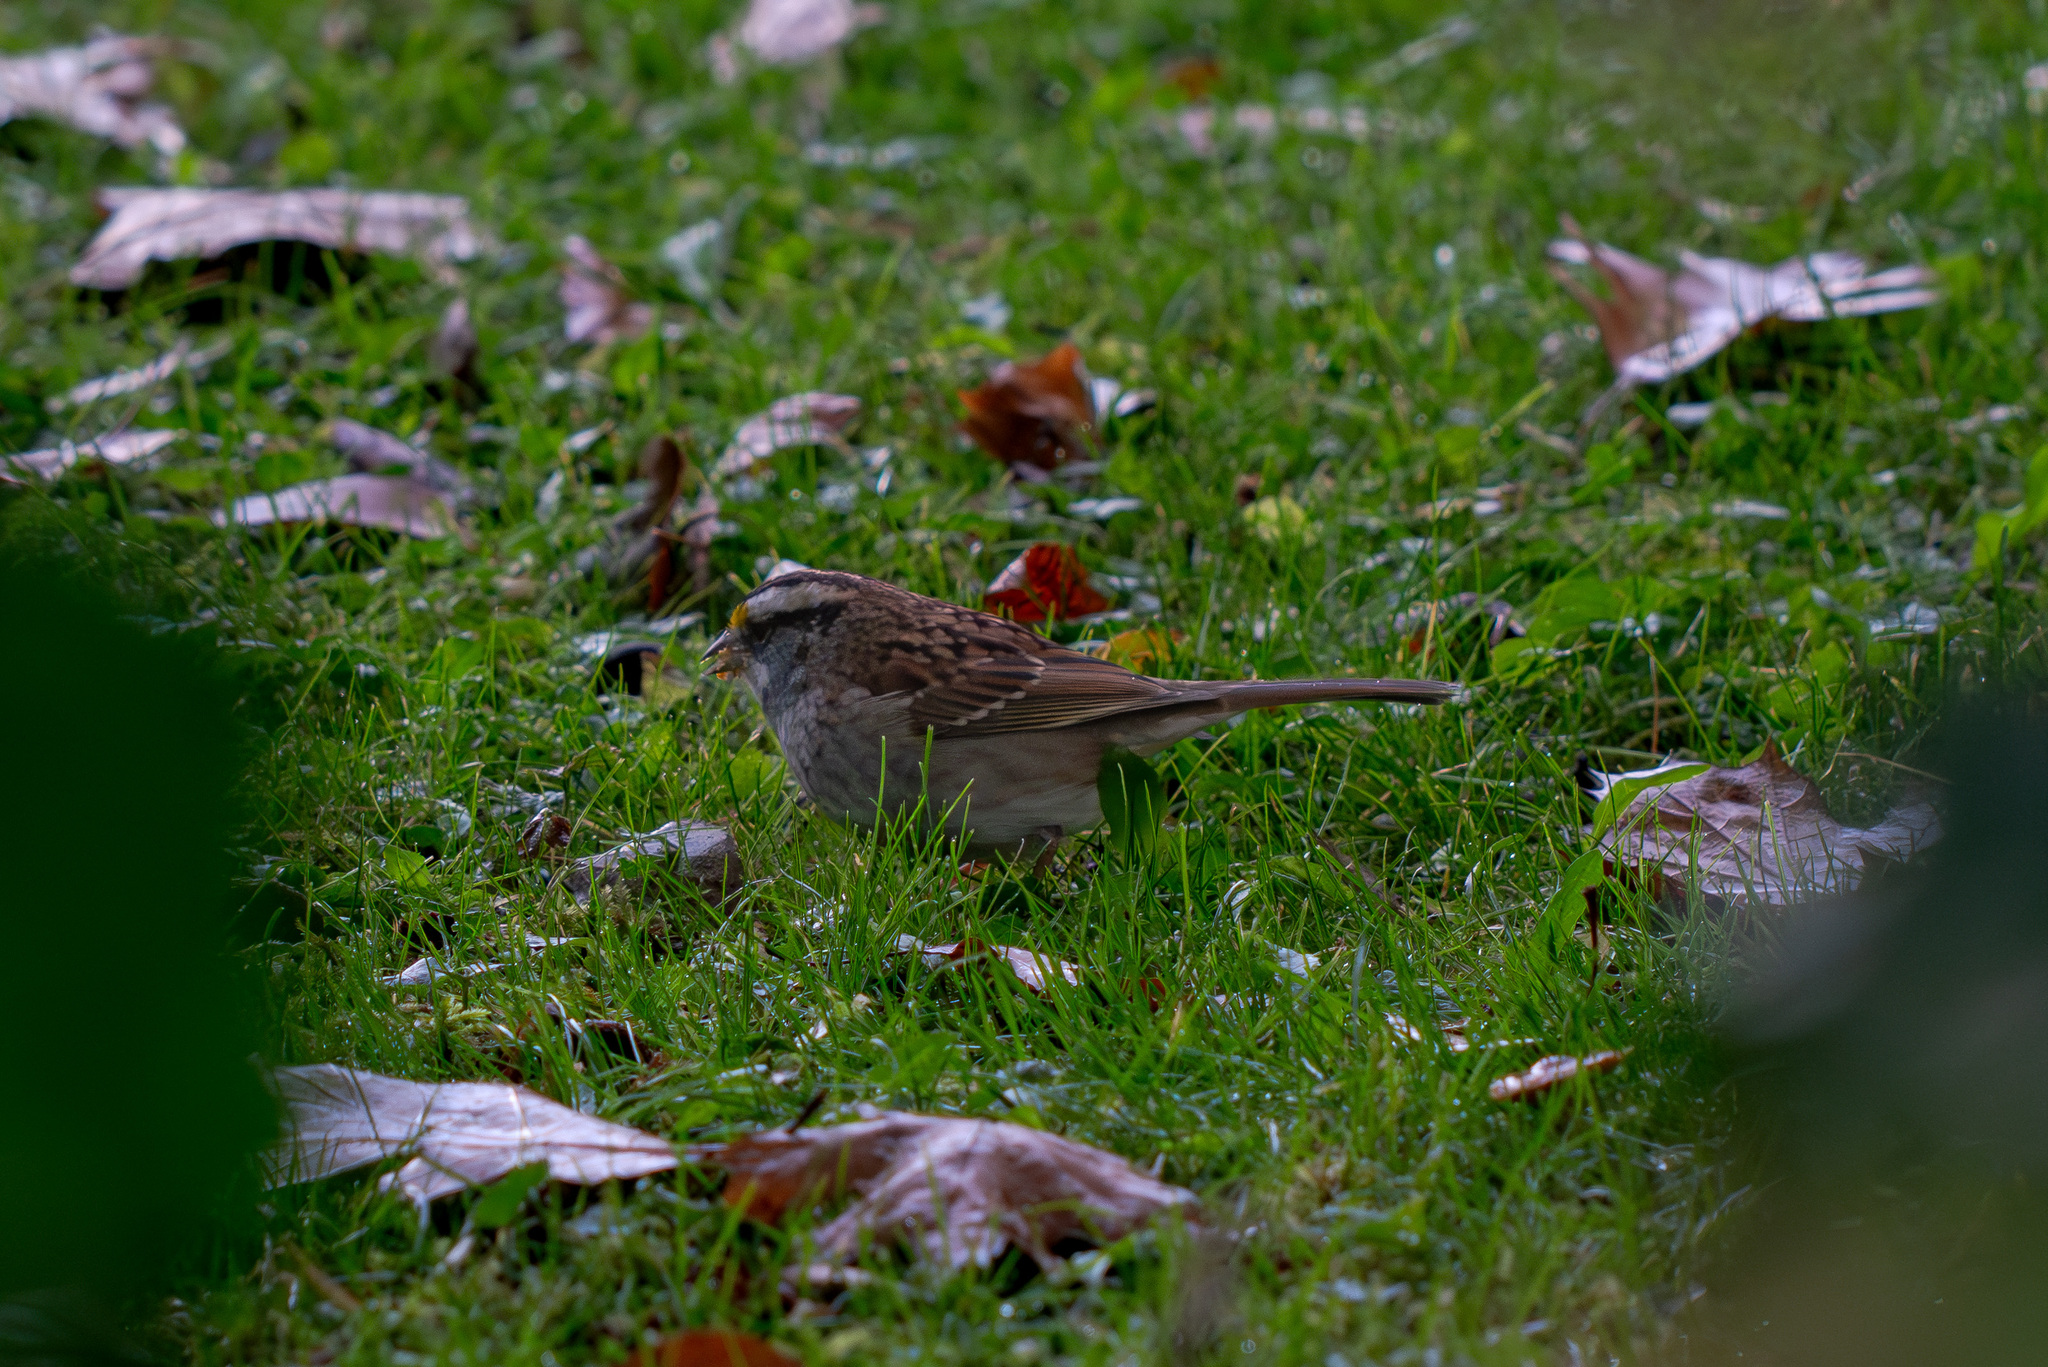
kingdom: Animalia
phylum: Chordata
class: Aves
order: Passeriformes
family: Passerellidae
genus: Zonotrichia
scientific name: Zonotrichia albicollis
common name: White-throated sparrow
